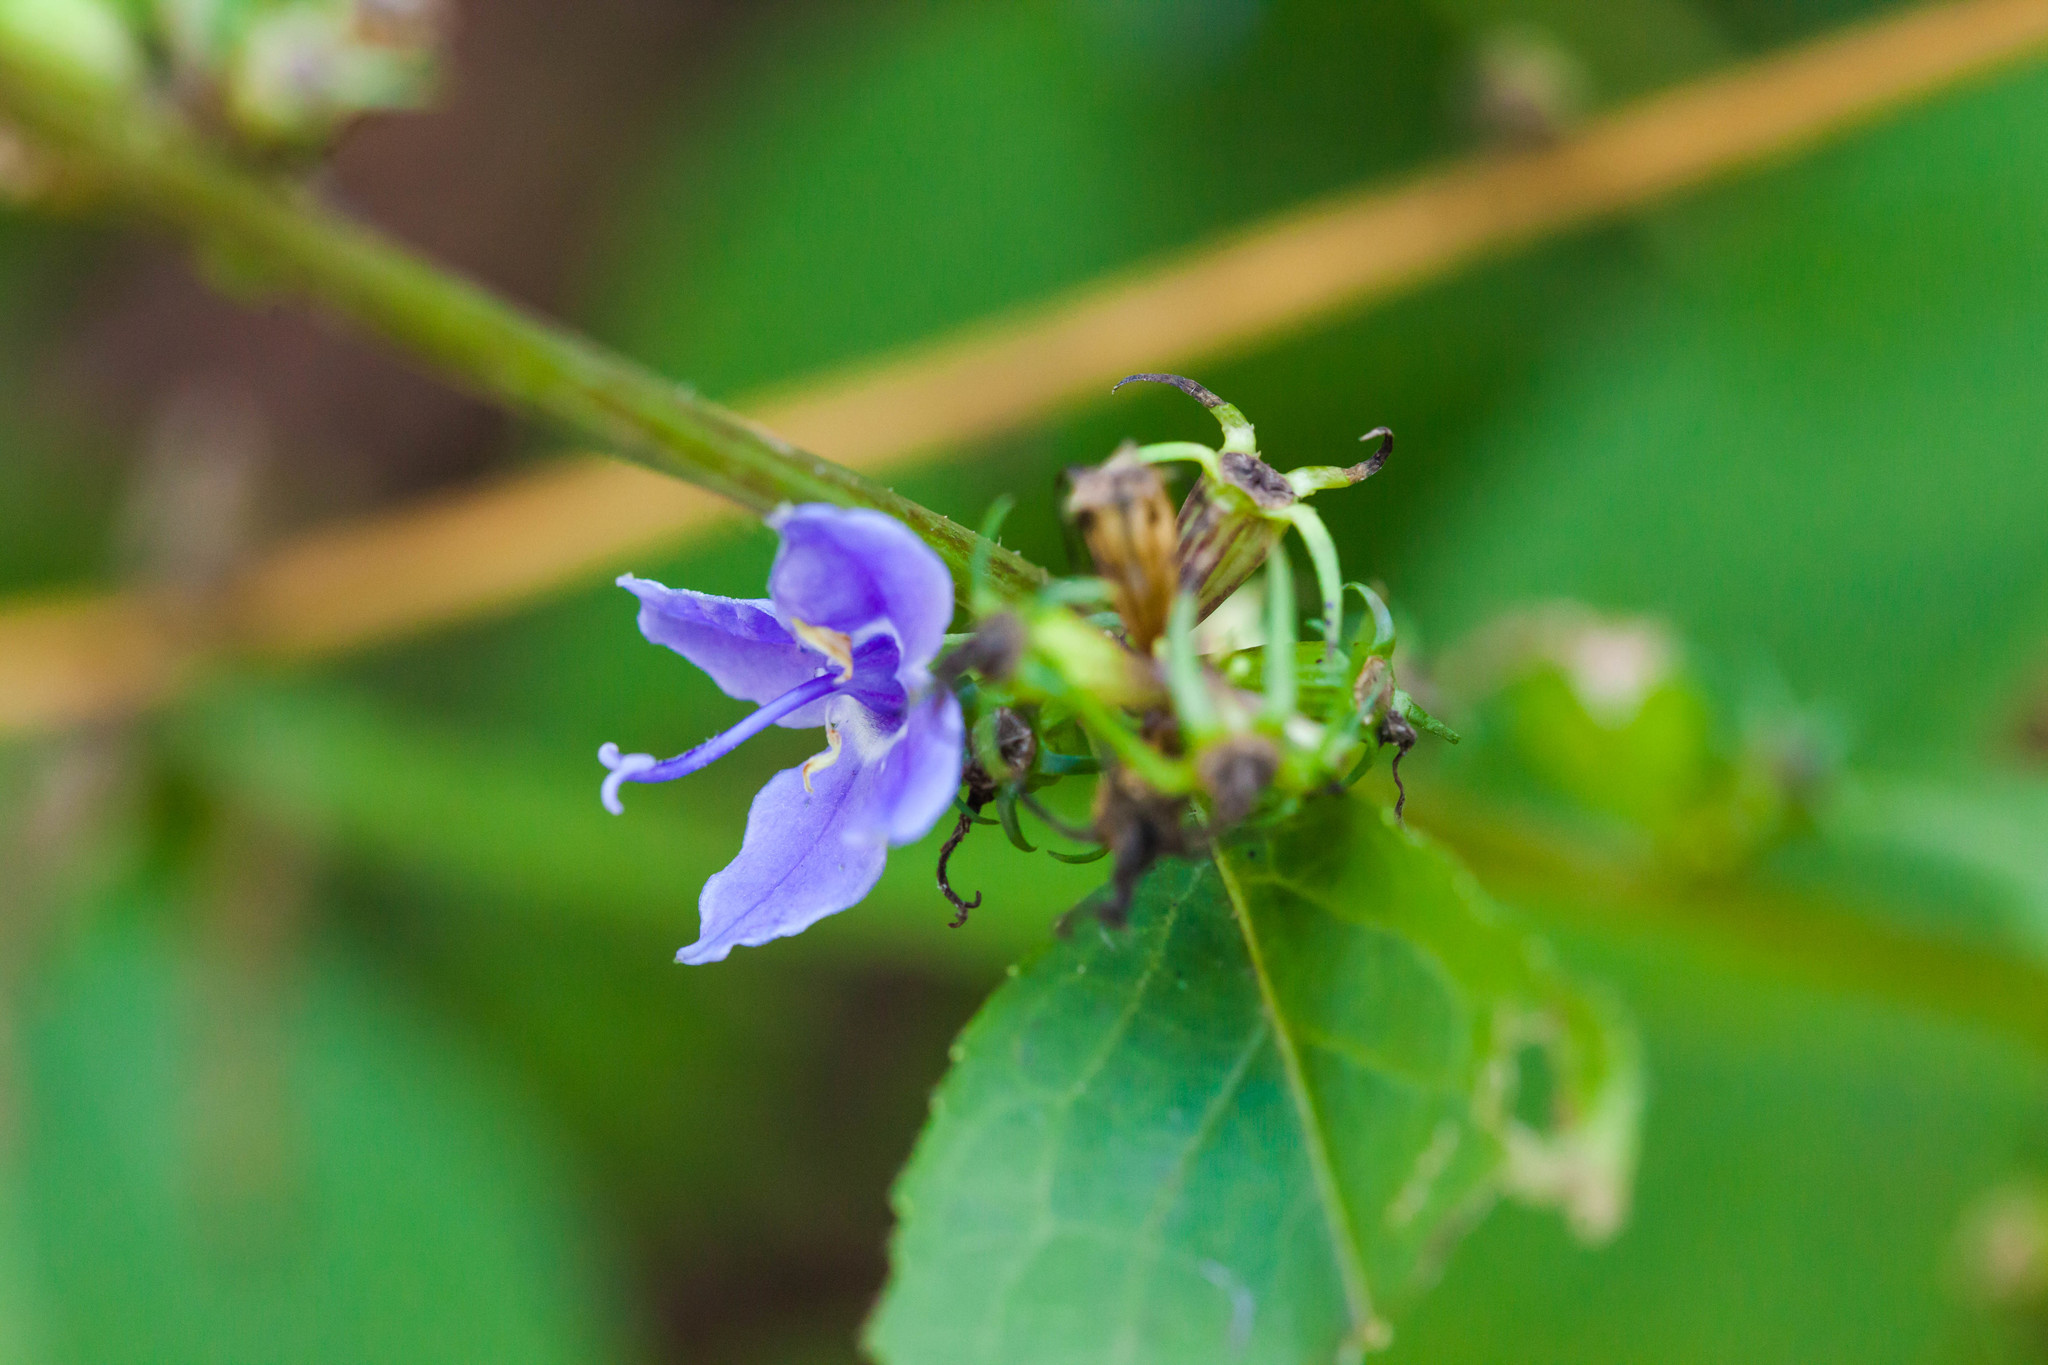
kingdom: Plantae
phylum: Tracheophyta
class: Magnoliopsida
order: Asterales
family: Campanulaceae
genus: Campanulastrum
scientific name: Campanulastrum americanum
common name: American bellflower
